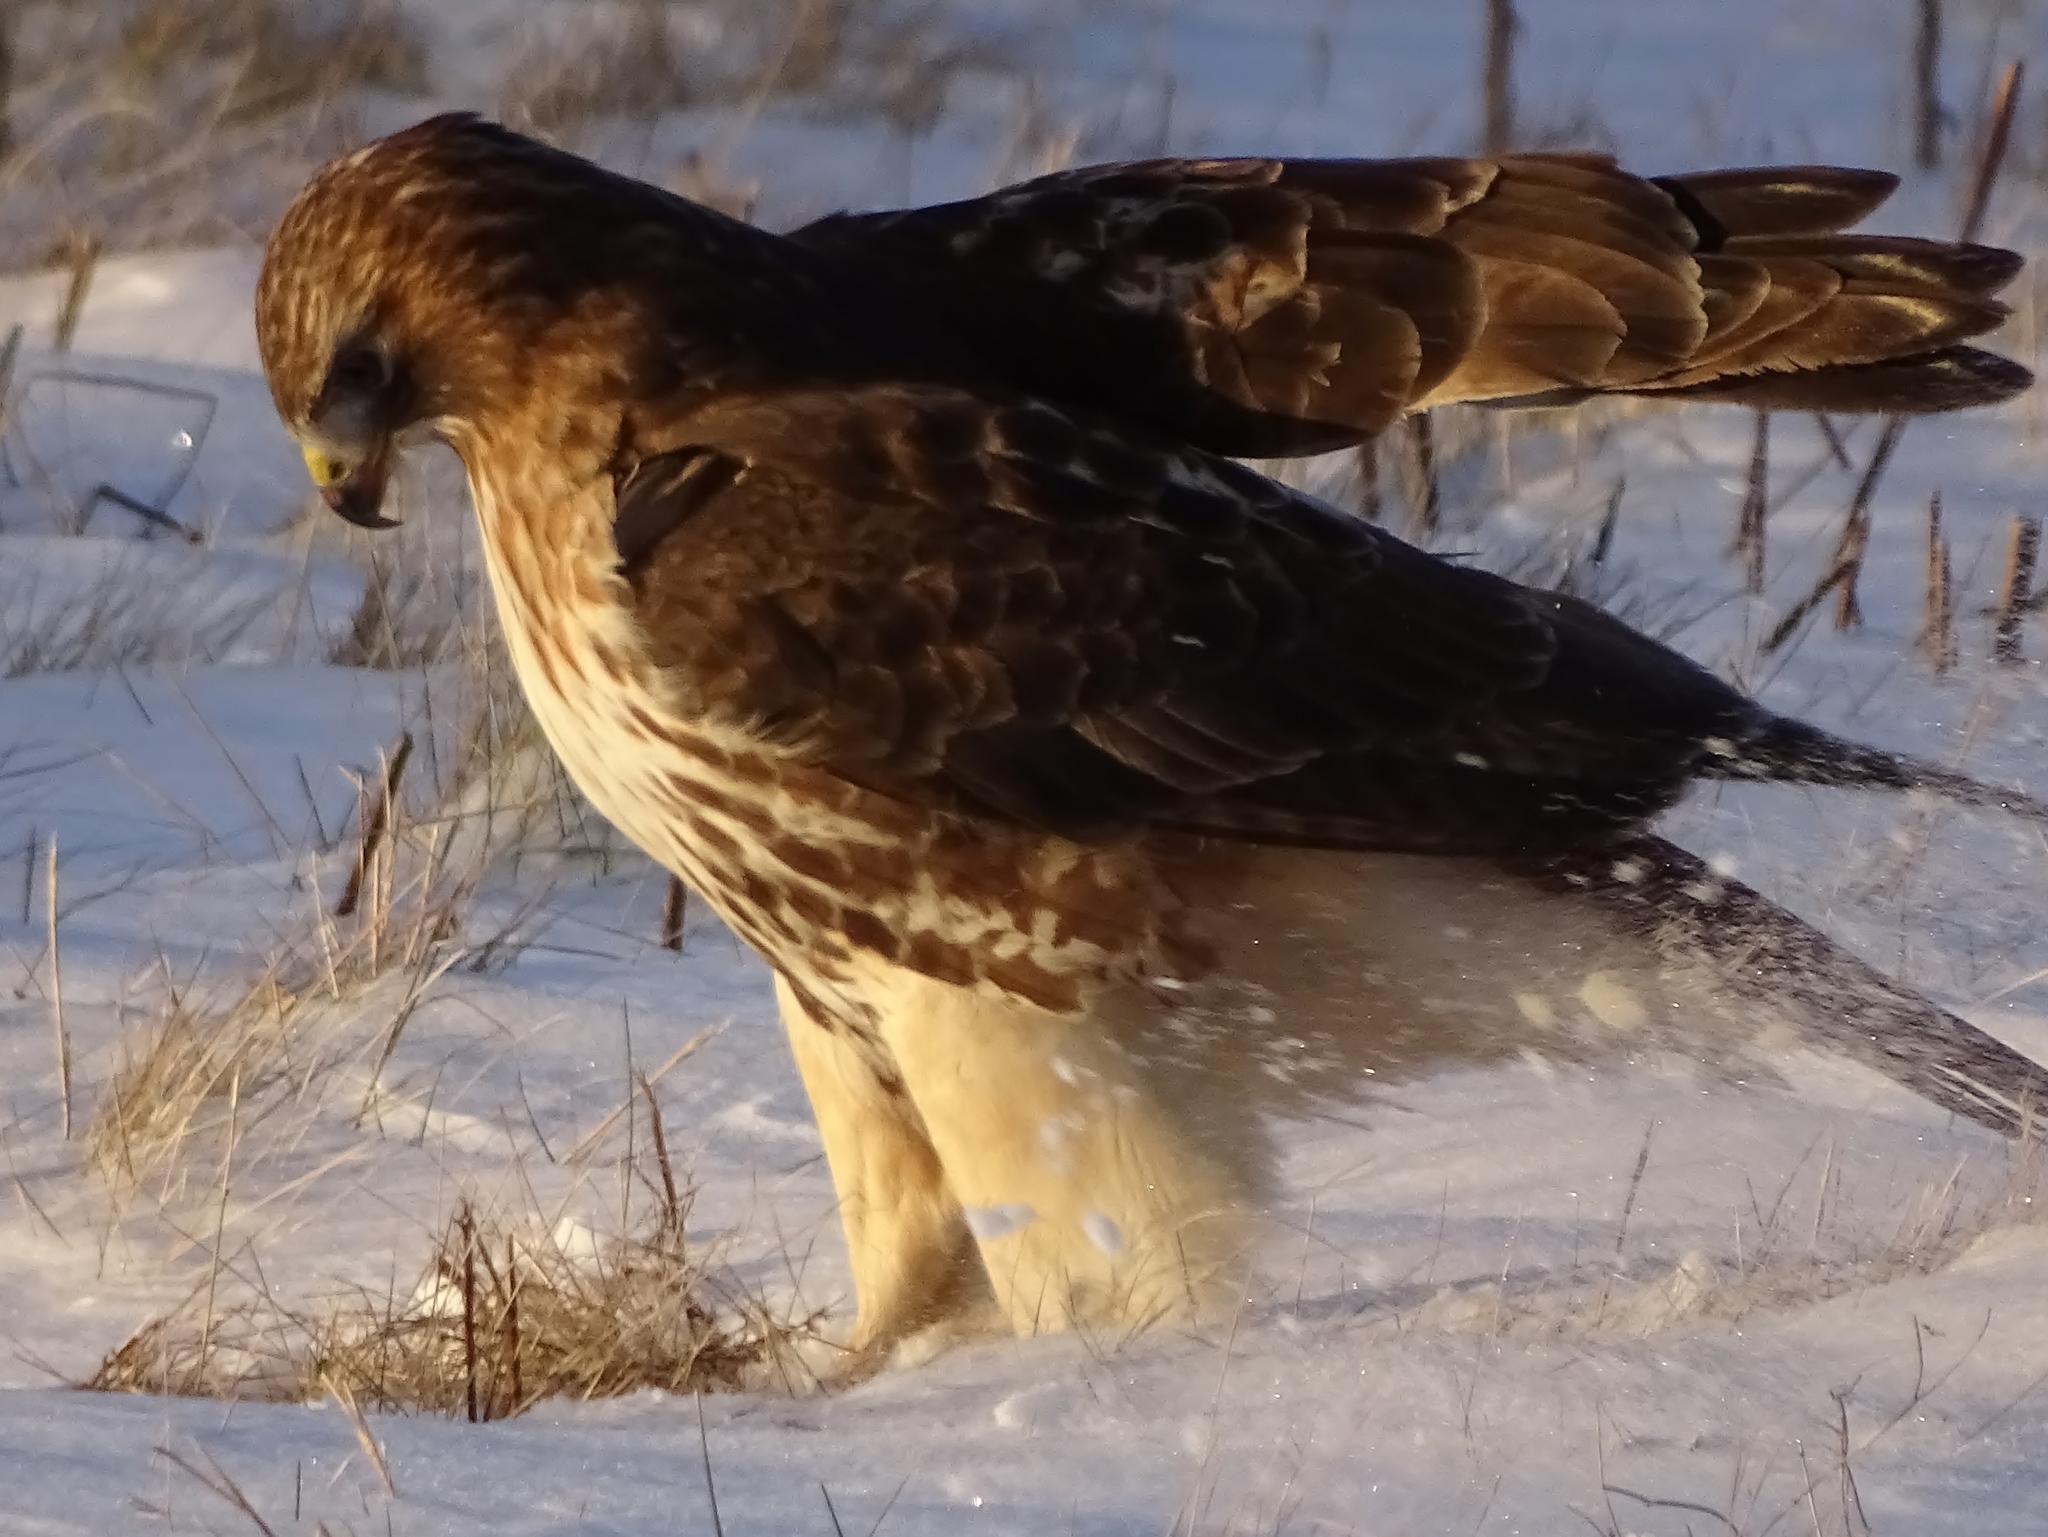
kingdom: Animalia
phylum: Chordata
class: Aves
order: Accipitriformes
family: Accipitridae
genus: Buteo
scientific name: Buteo jamaicensis
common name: Red-tailed hawk
